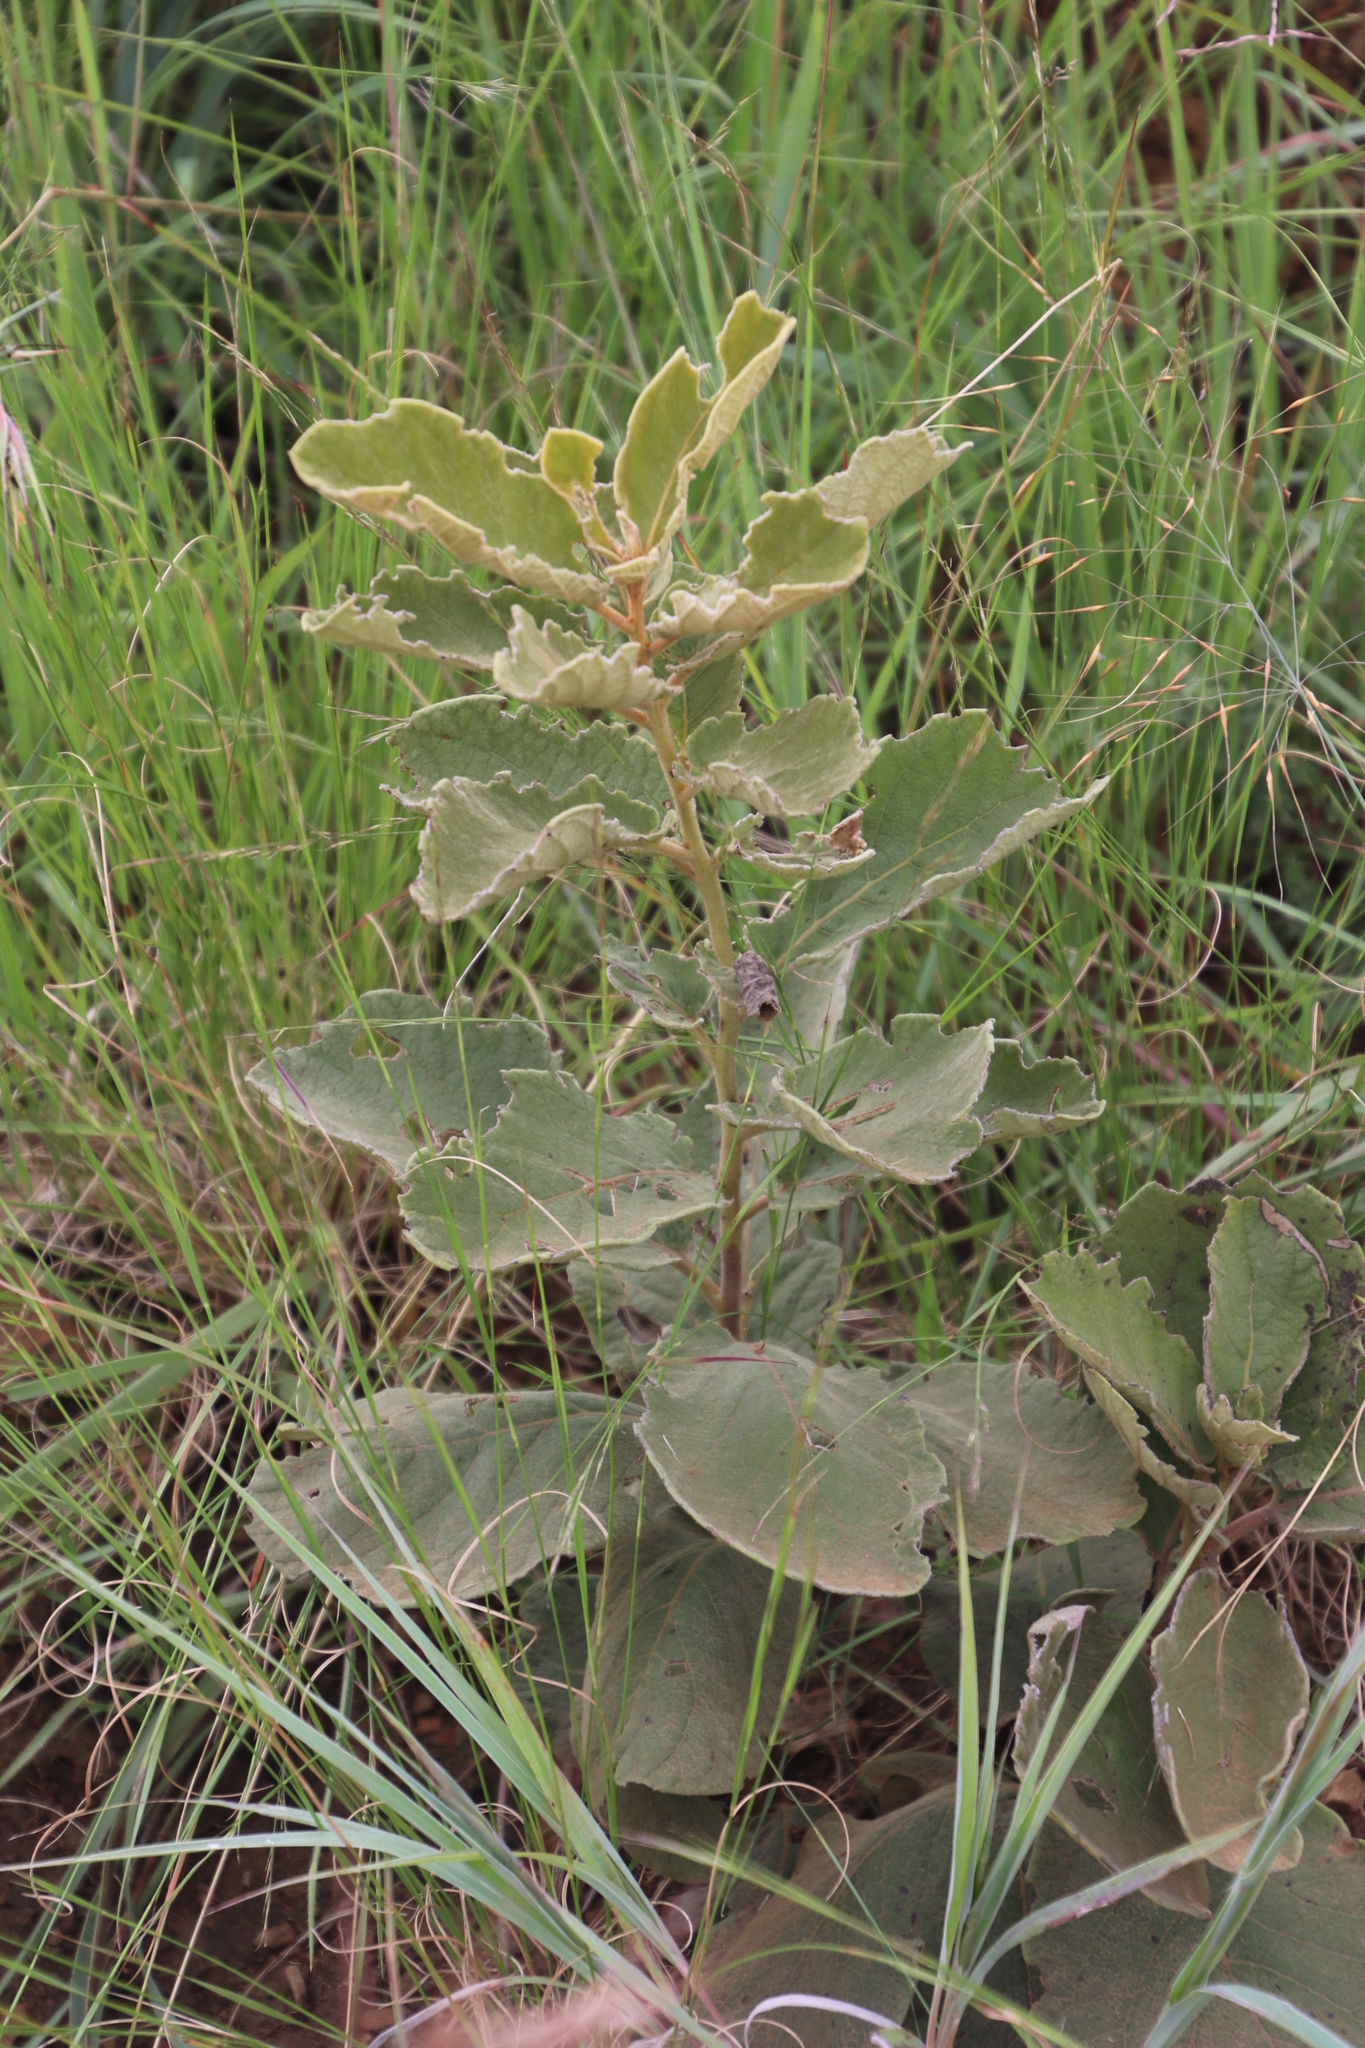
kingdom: Plantae
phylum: Tracheophyta
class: Magnoliopsida
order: Ericales
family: Ebenaceae
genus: Diospyros
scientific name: Diospyros galpinii
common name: Dwarf hairy star-apple
